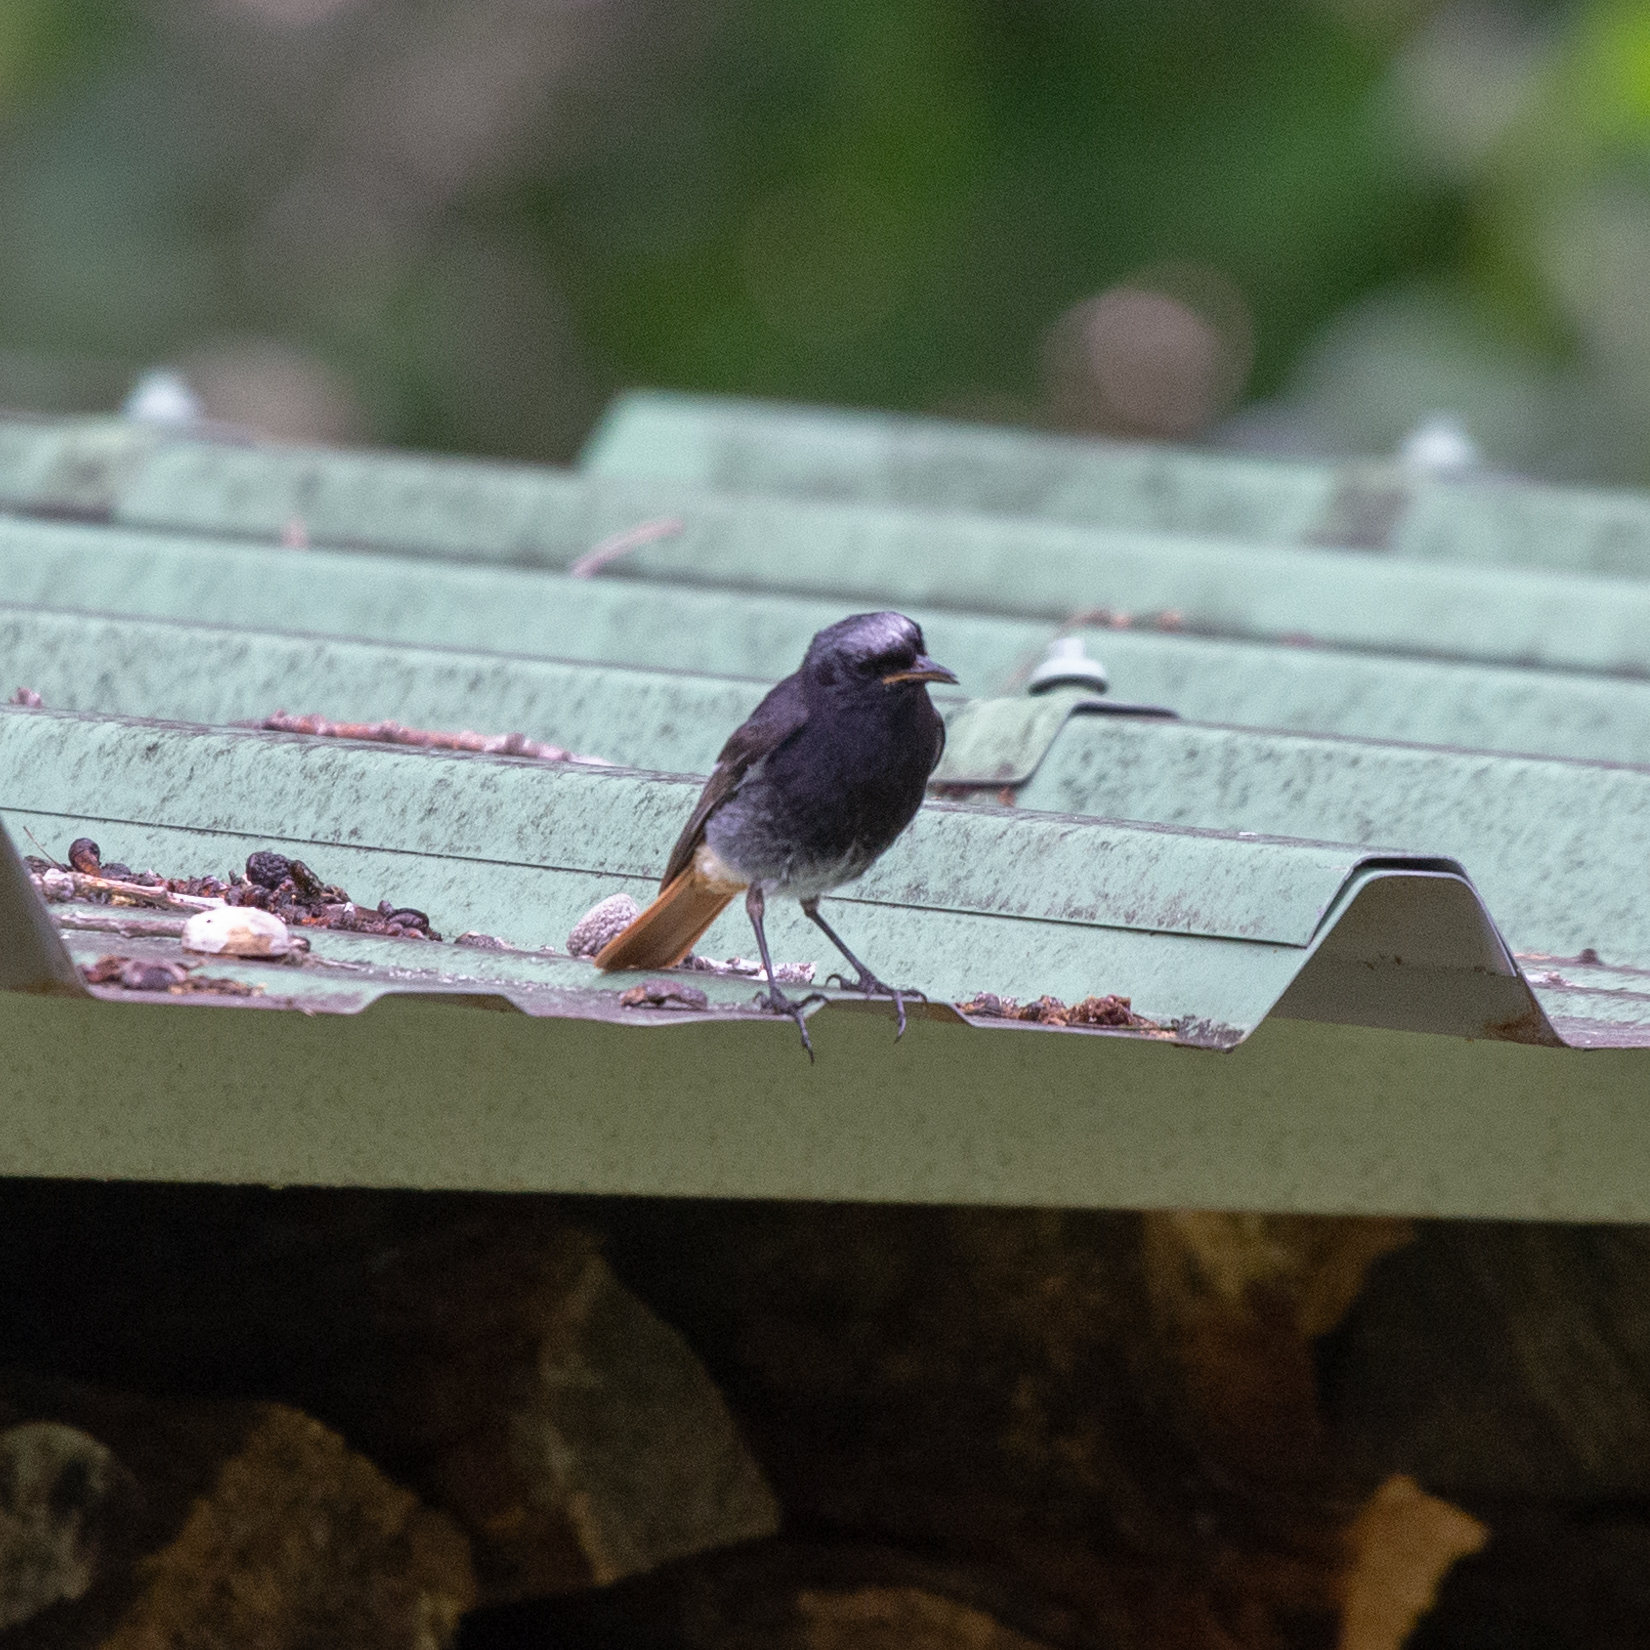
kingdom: Animalia
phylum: Chordata
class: Aves
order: Passeriformes
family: Muscicapidae
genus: Phoenicurus
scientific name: Phoenicurus ochruros
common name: Black redstart
